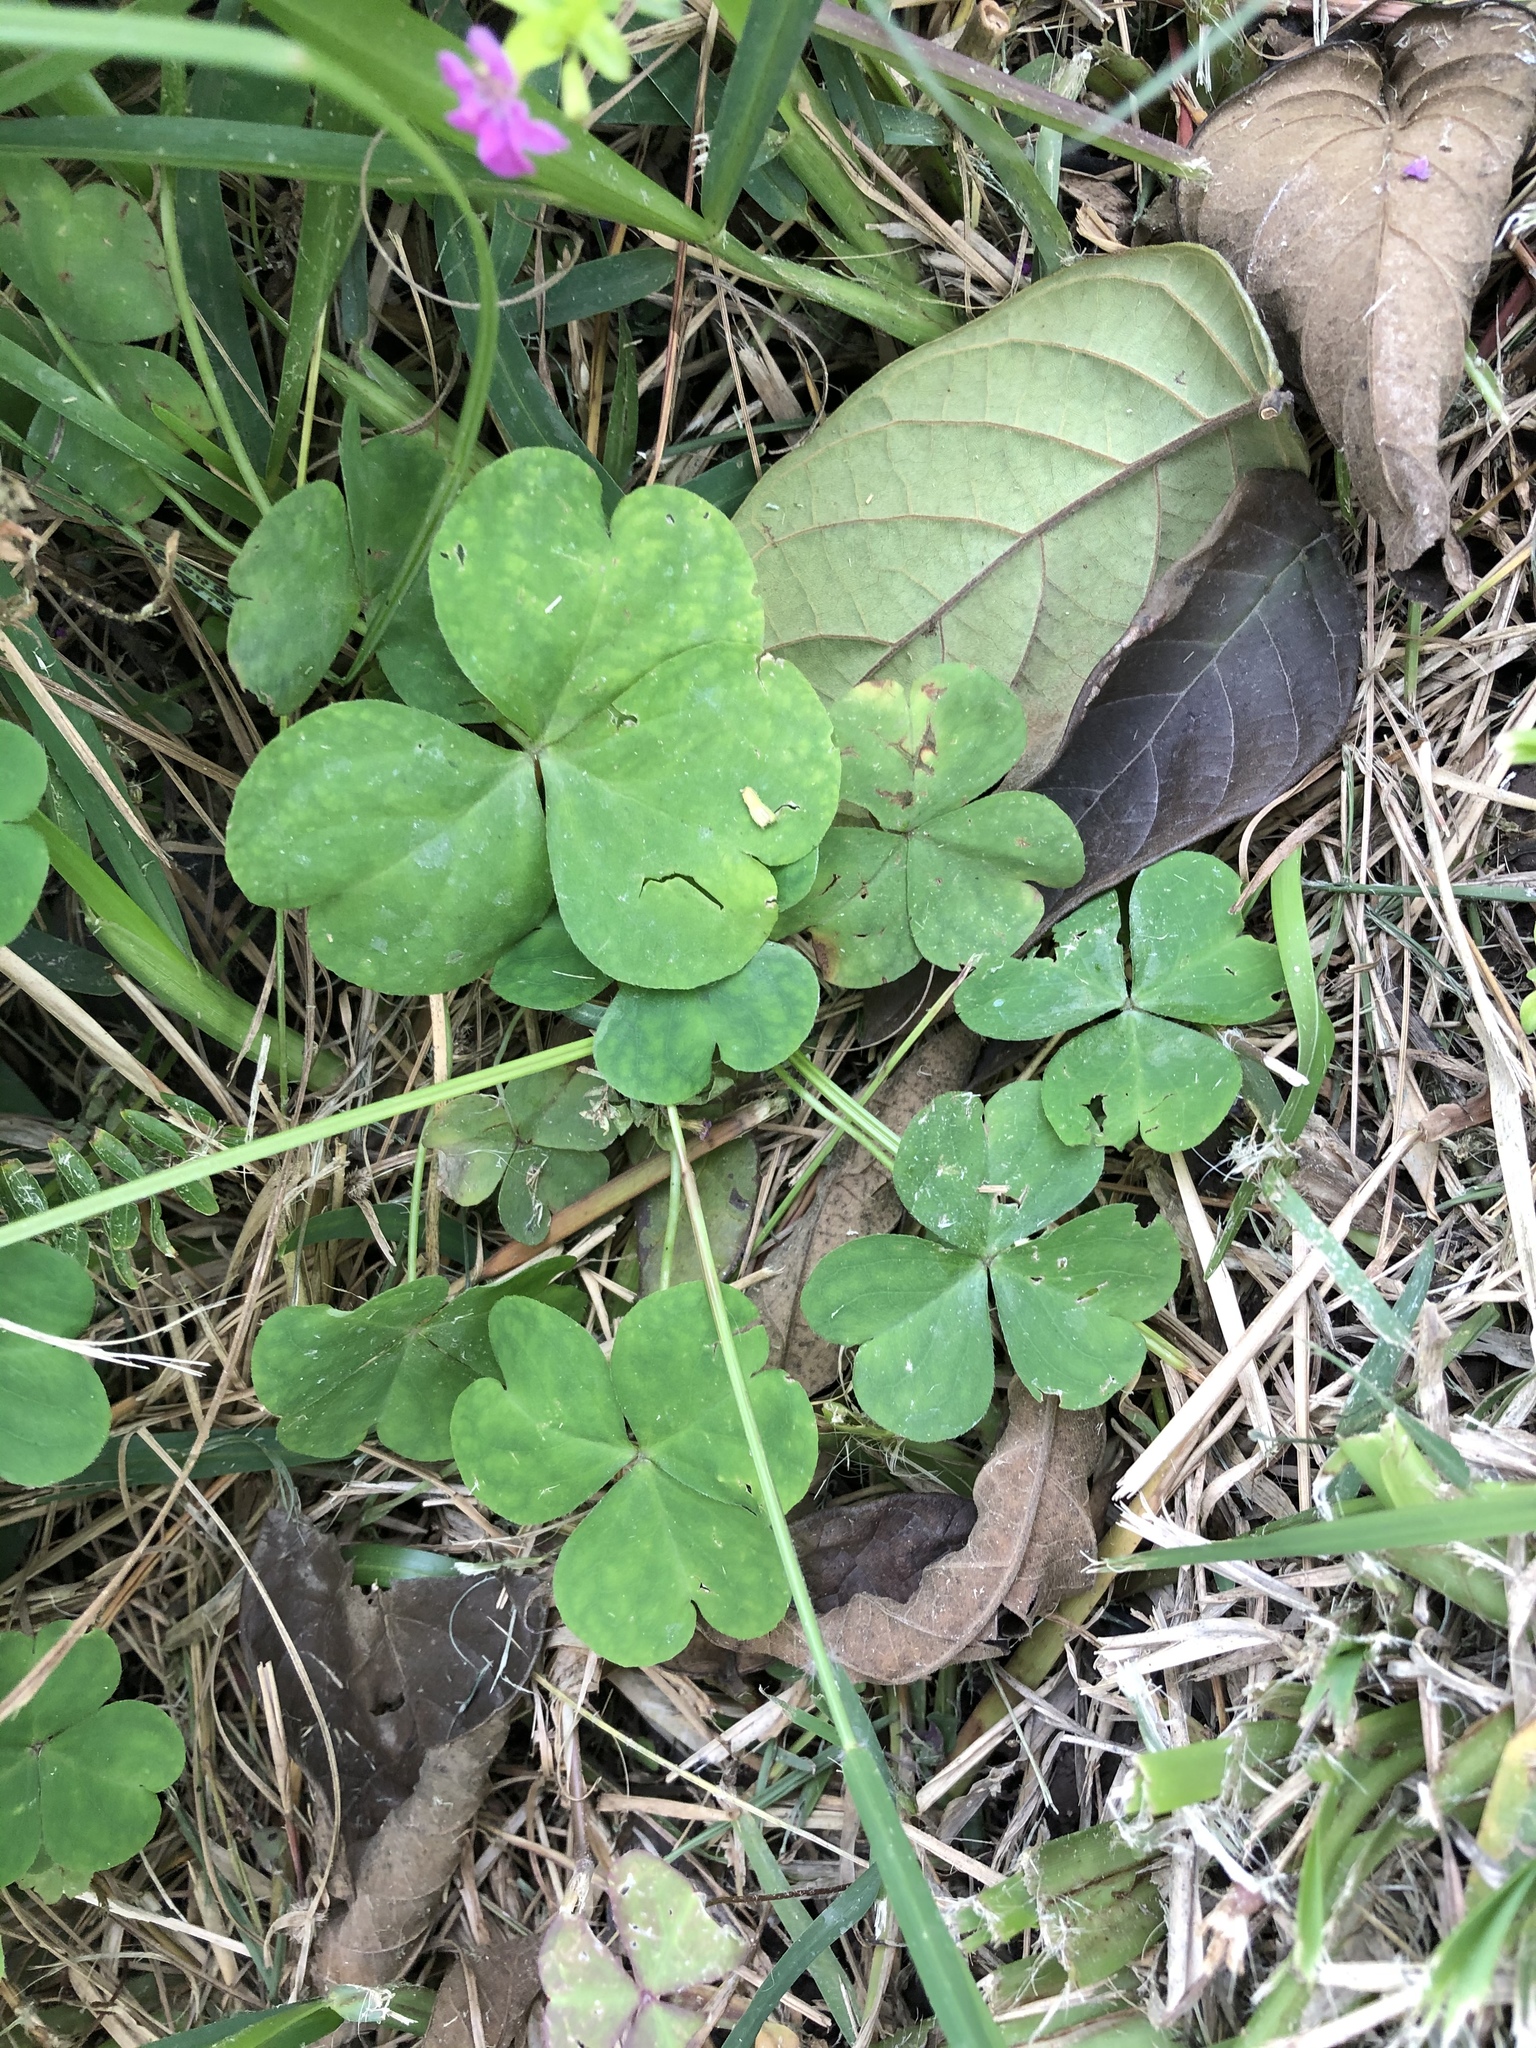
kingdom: Plantae
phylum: Tracheophyta
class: Magnoliopsida
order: Oxalidales
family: Oxalidaceae
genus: Oxalis
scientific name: Oxalis debilis
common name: Large-flowered pink-sorrel
